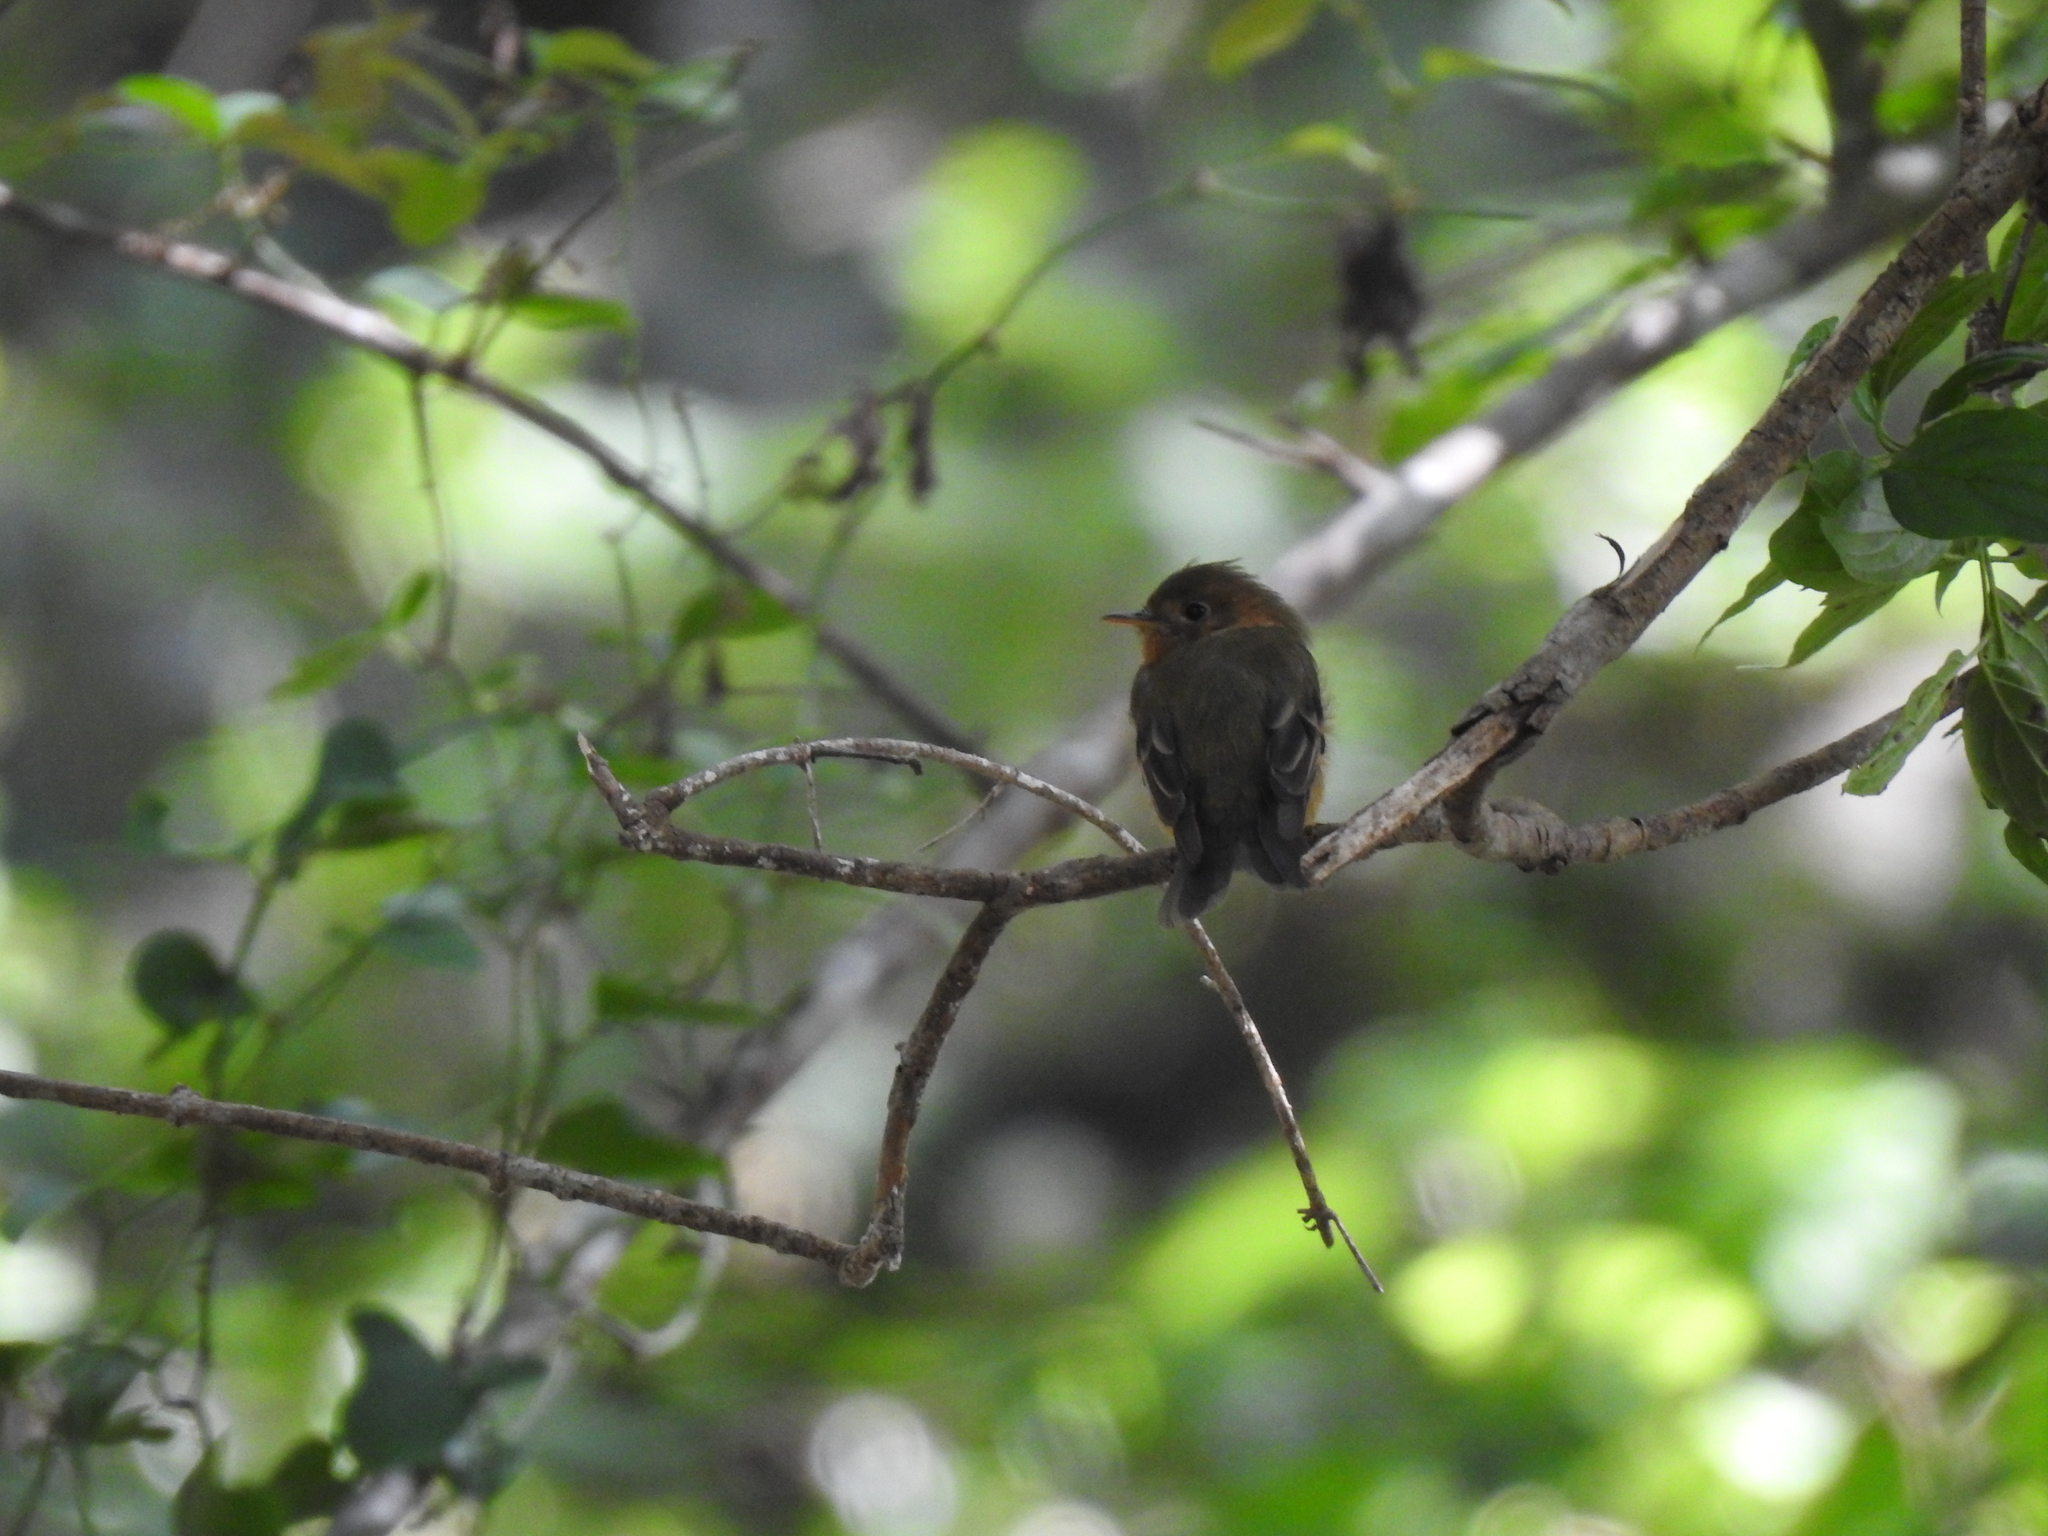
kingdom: Animalia
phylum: Chordata
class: Aves
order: Passeriformes
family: Tyrannidae
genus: Mitrephanes
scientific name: Mitrephanes phaeocercus
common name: Northern tufted flycatcher
